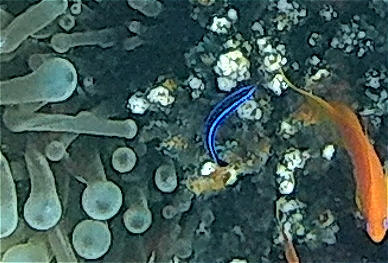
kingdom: Animalia
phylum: Chordata
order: Perciformes
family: Labridae
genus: Larabicus
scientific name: Larabicus quadrilineatus
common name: Fourline wrasse
